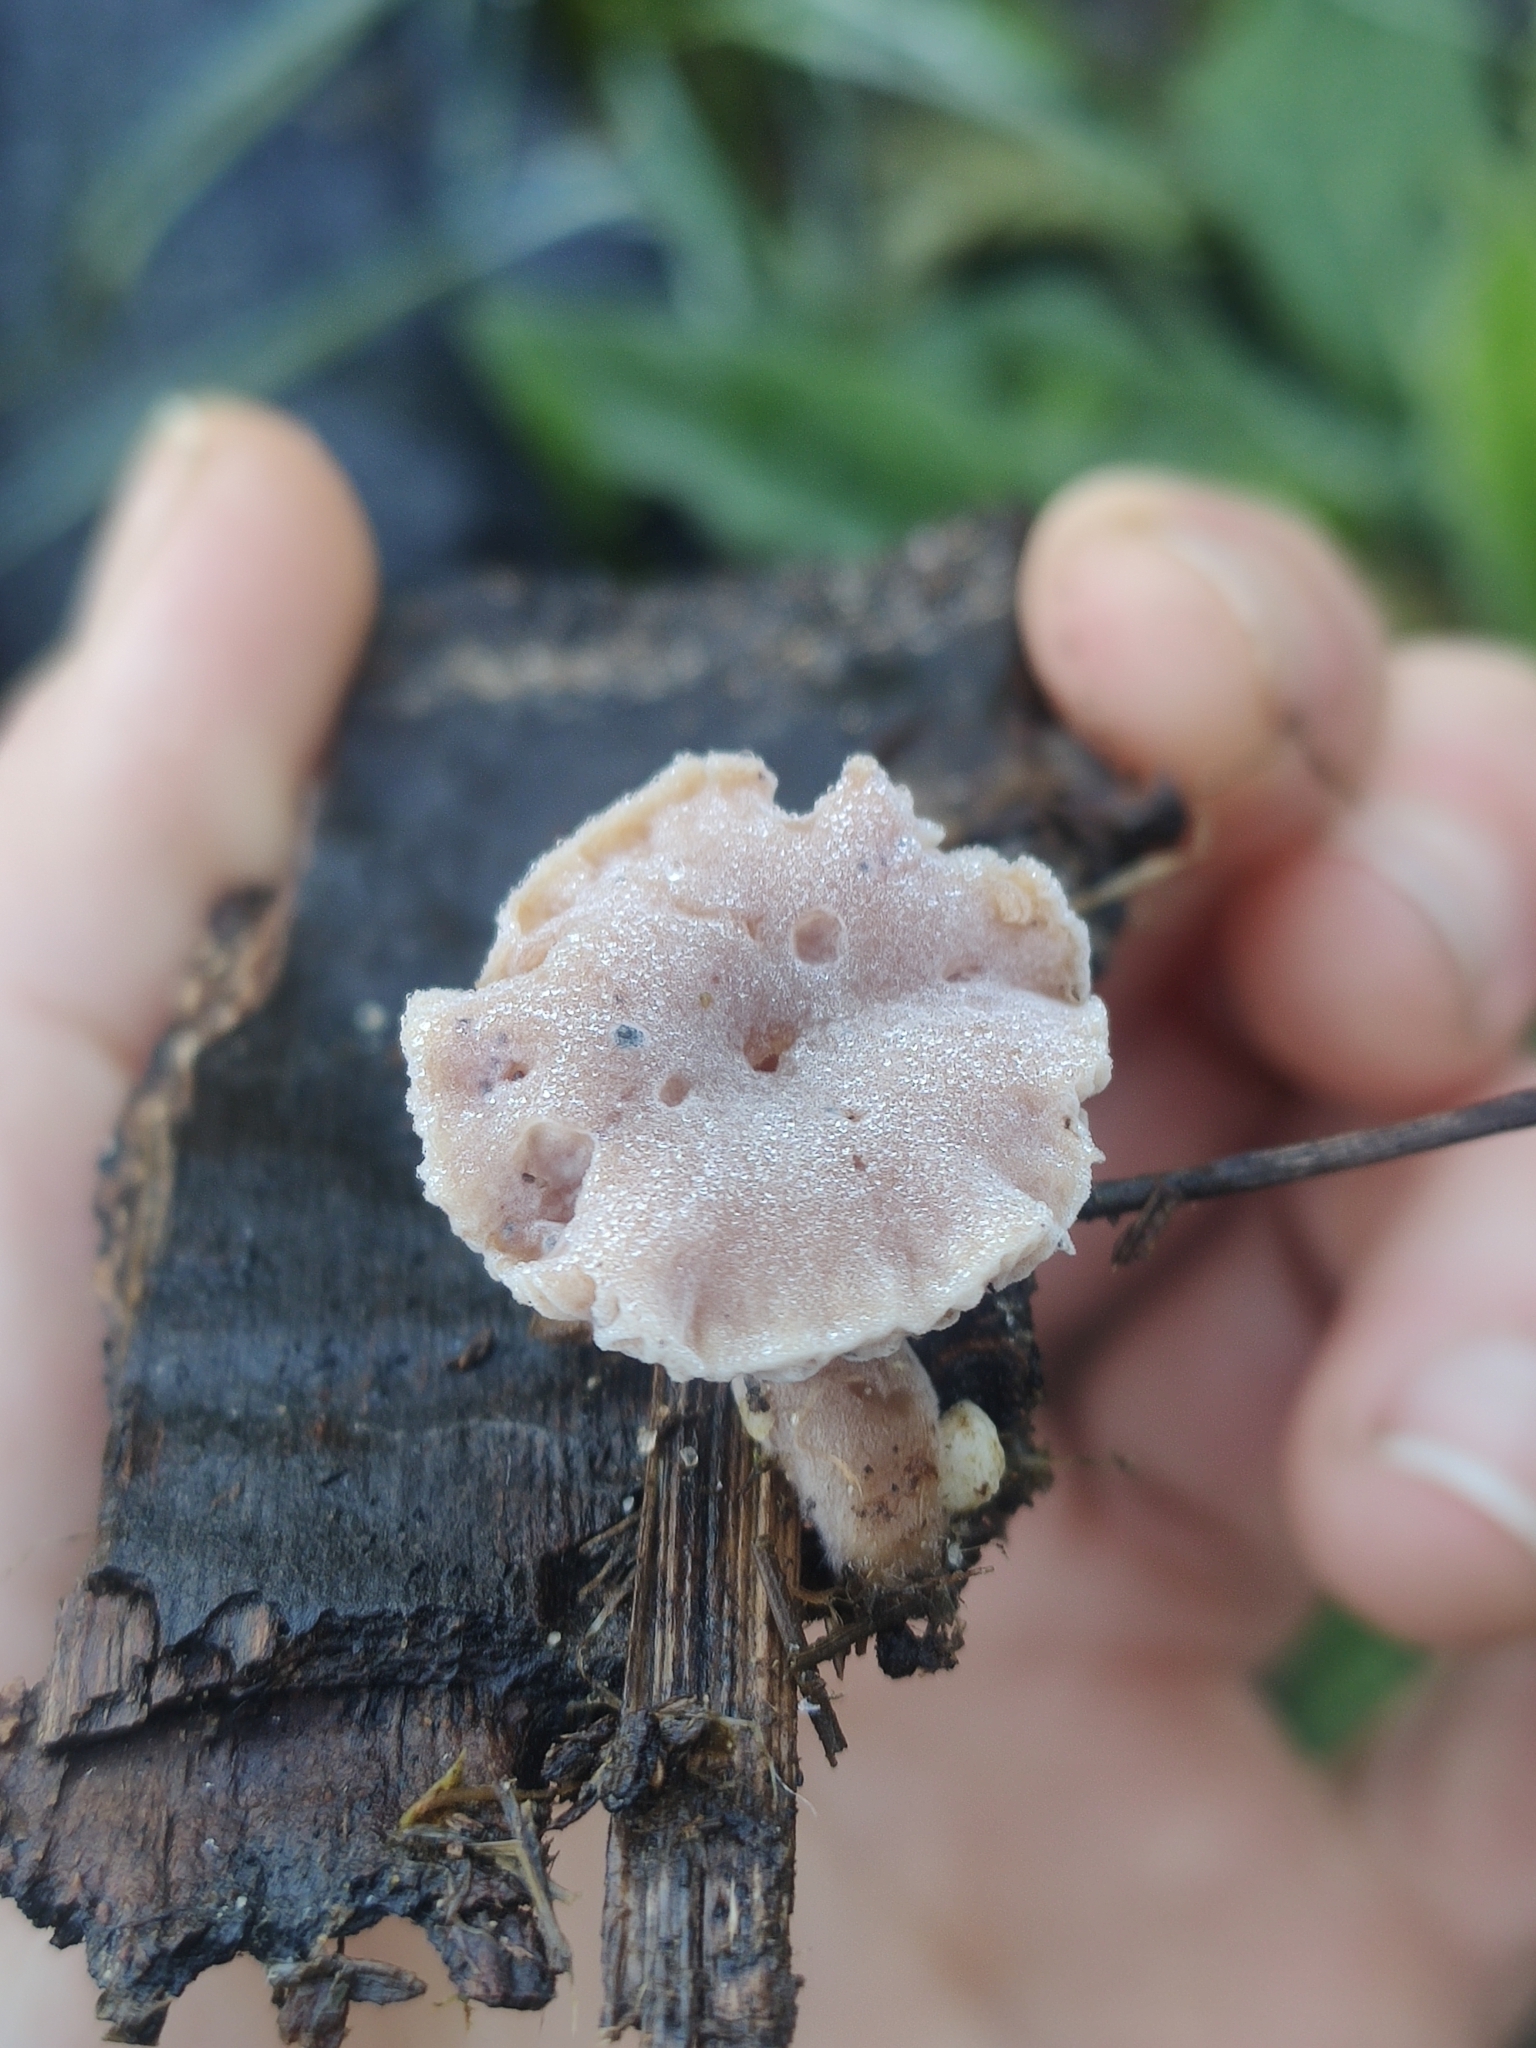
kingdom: Fungi
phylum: Ascomycota
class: Sordariomycetes
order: Hypocreales
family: Hypocreaceae
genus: Hypomyces
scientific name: Hypomyces tubariicola
